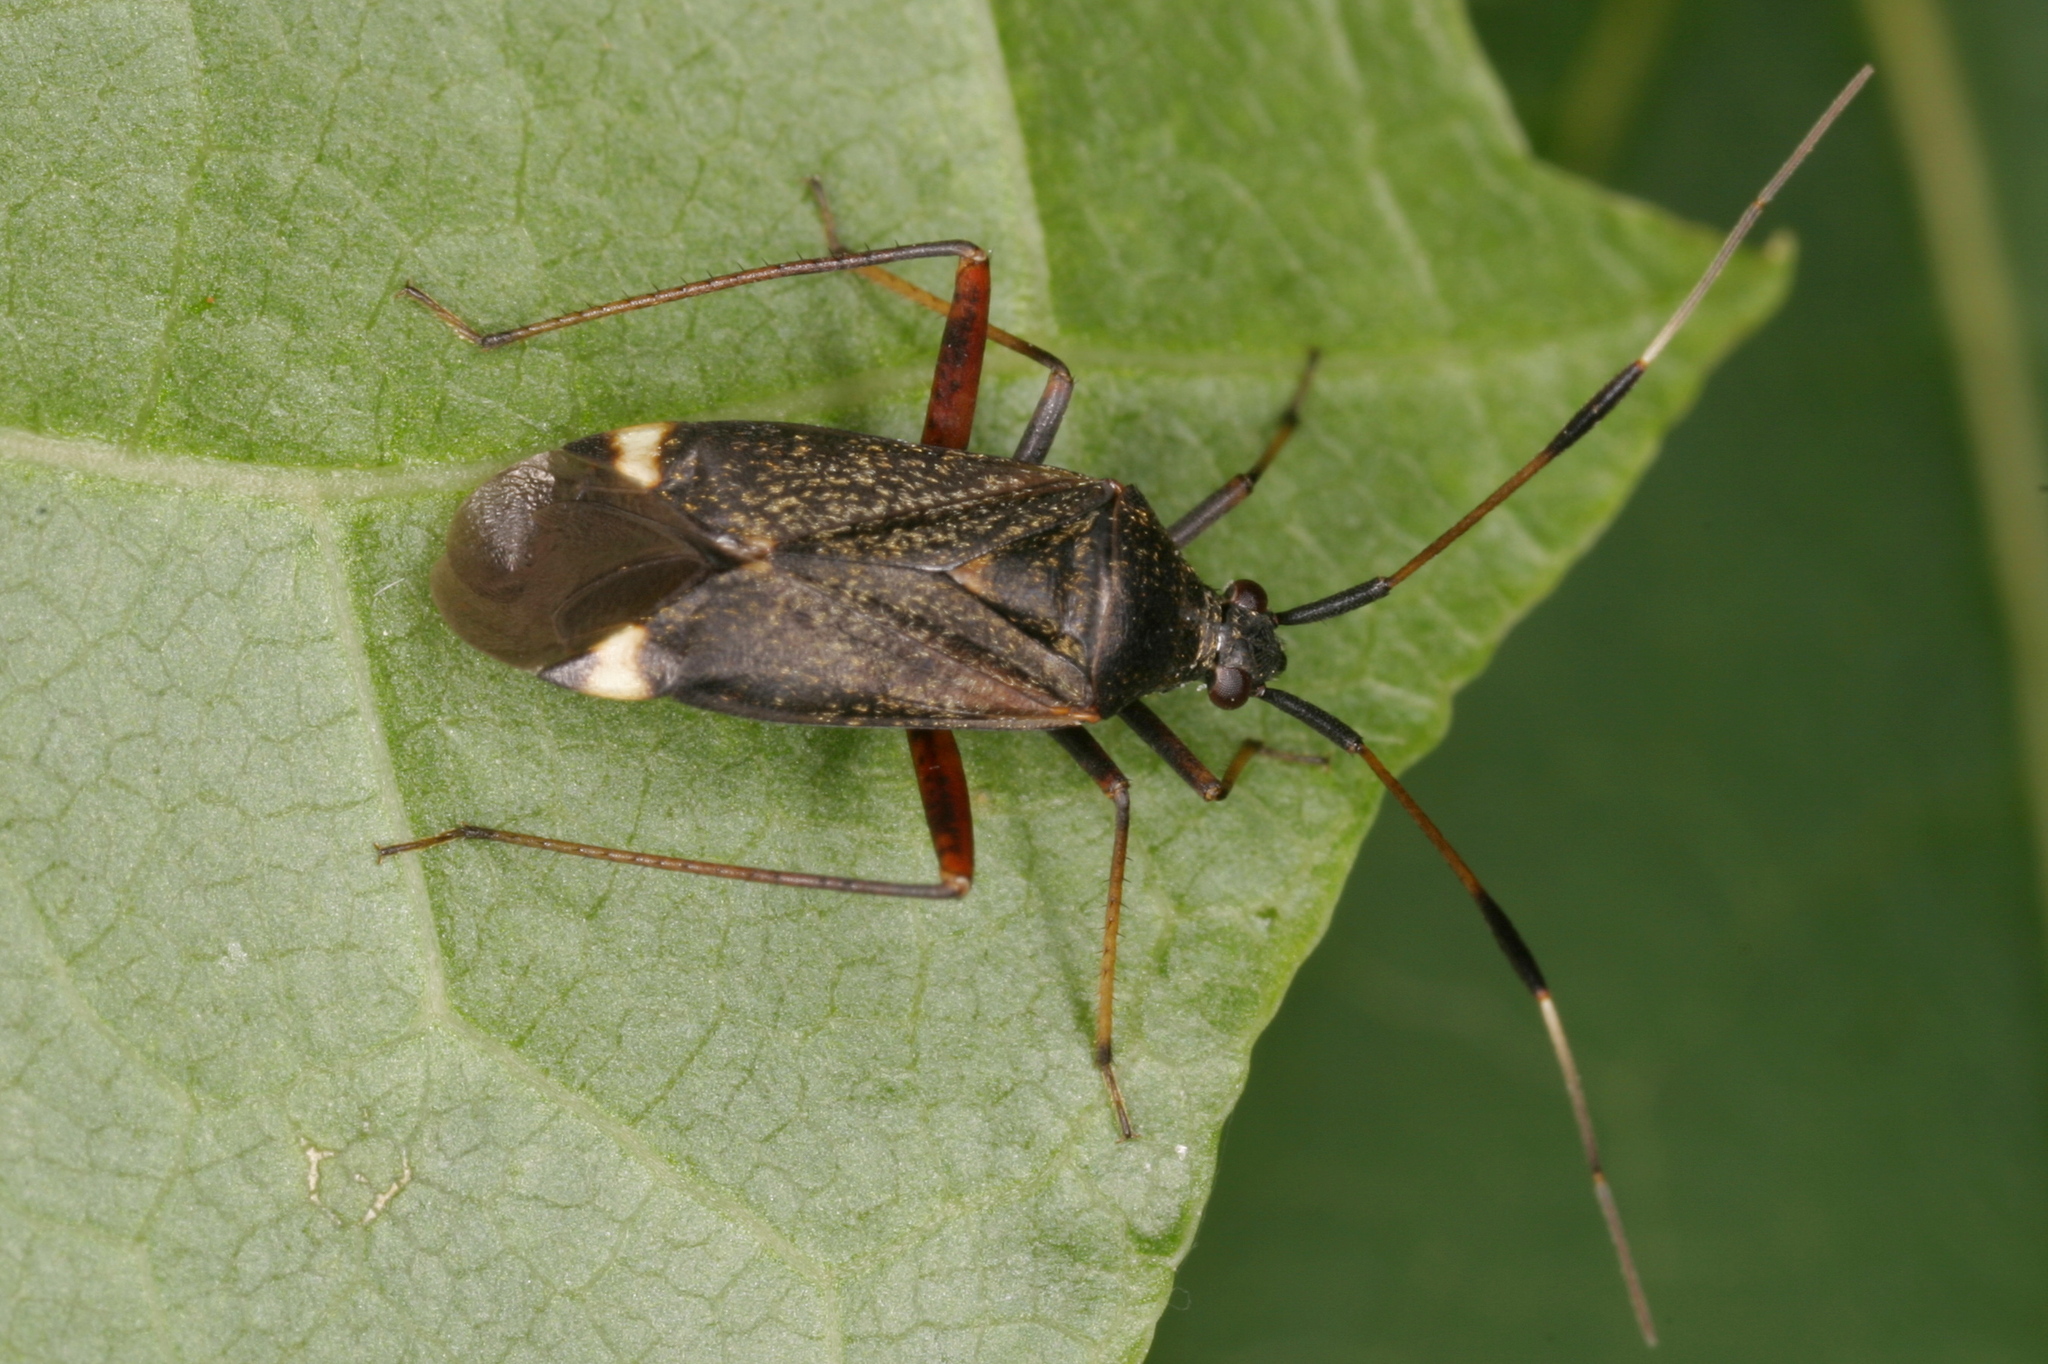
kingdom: Animalia
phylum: Arthropoda
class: Insecta
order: Hemiptera
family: Miridae
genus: Closterotomus
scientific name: Closterotomus biclavatus
